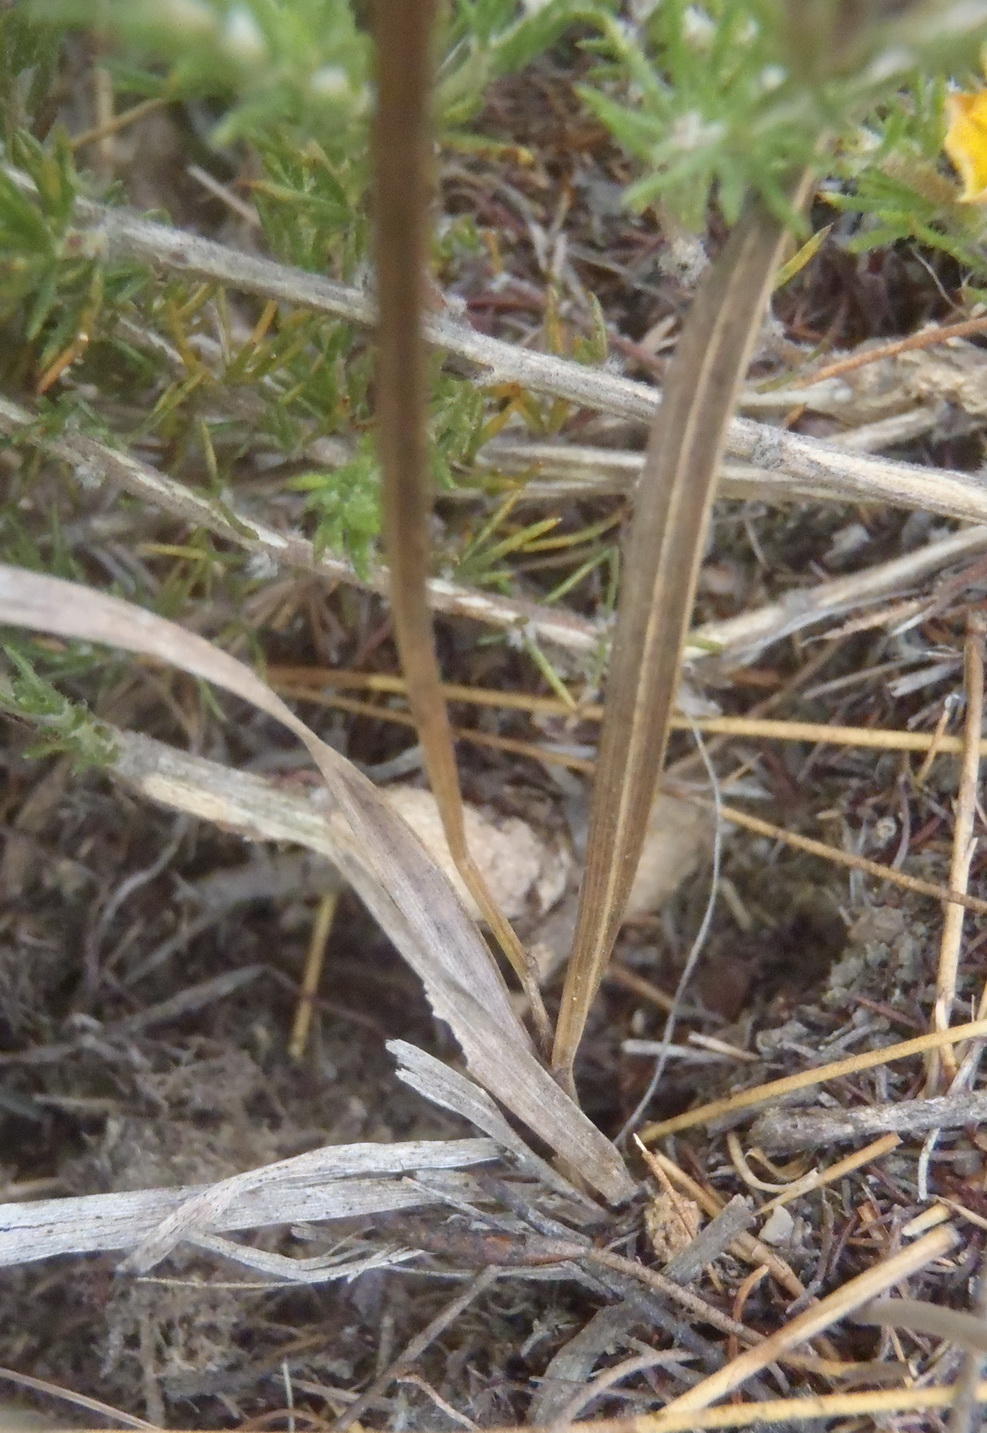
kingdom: Plantae
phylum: Tracheophyta
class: Magnoliopsida
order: Geraniales
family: Geraniaceae
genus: Pelargonium
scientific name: Pelargonium gracillimum
